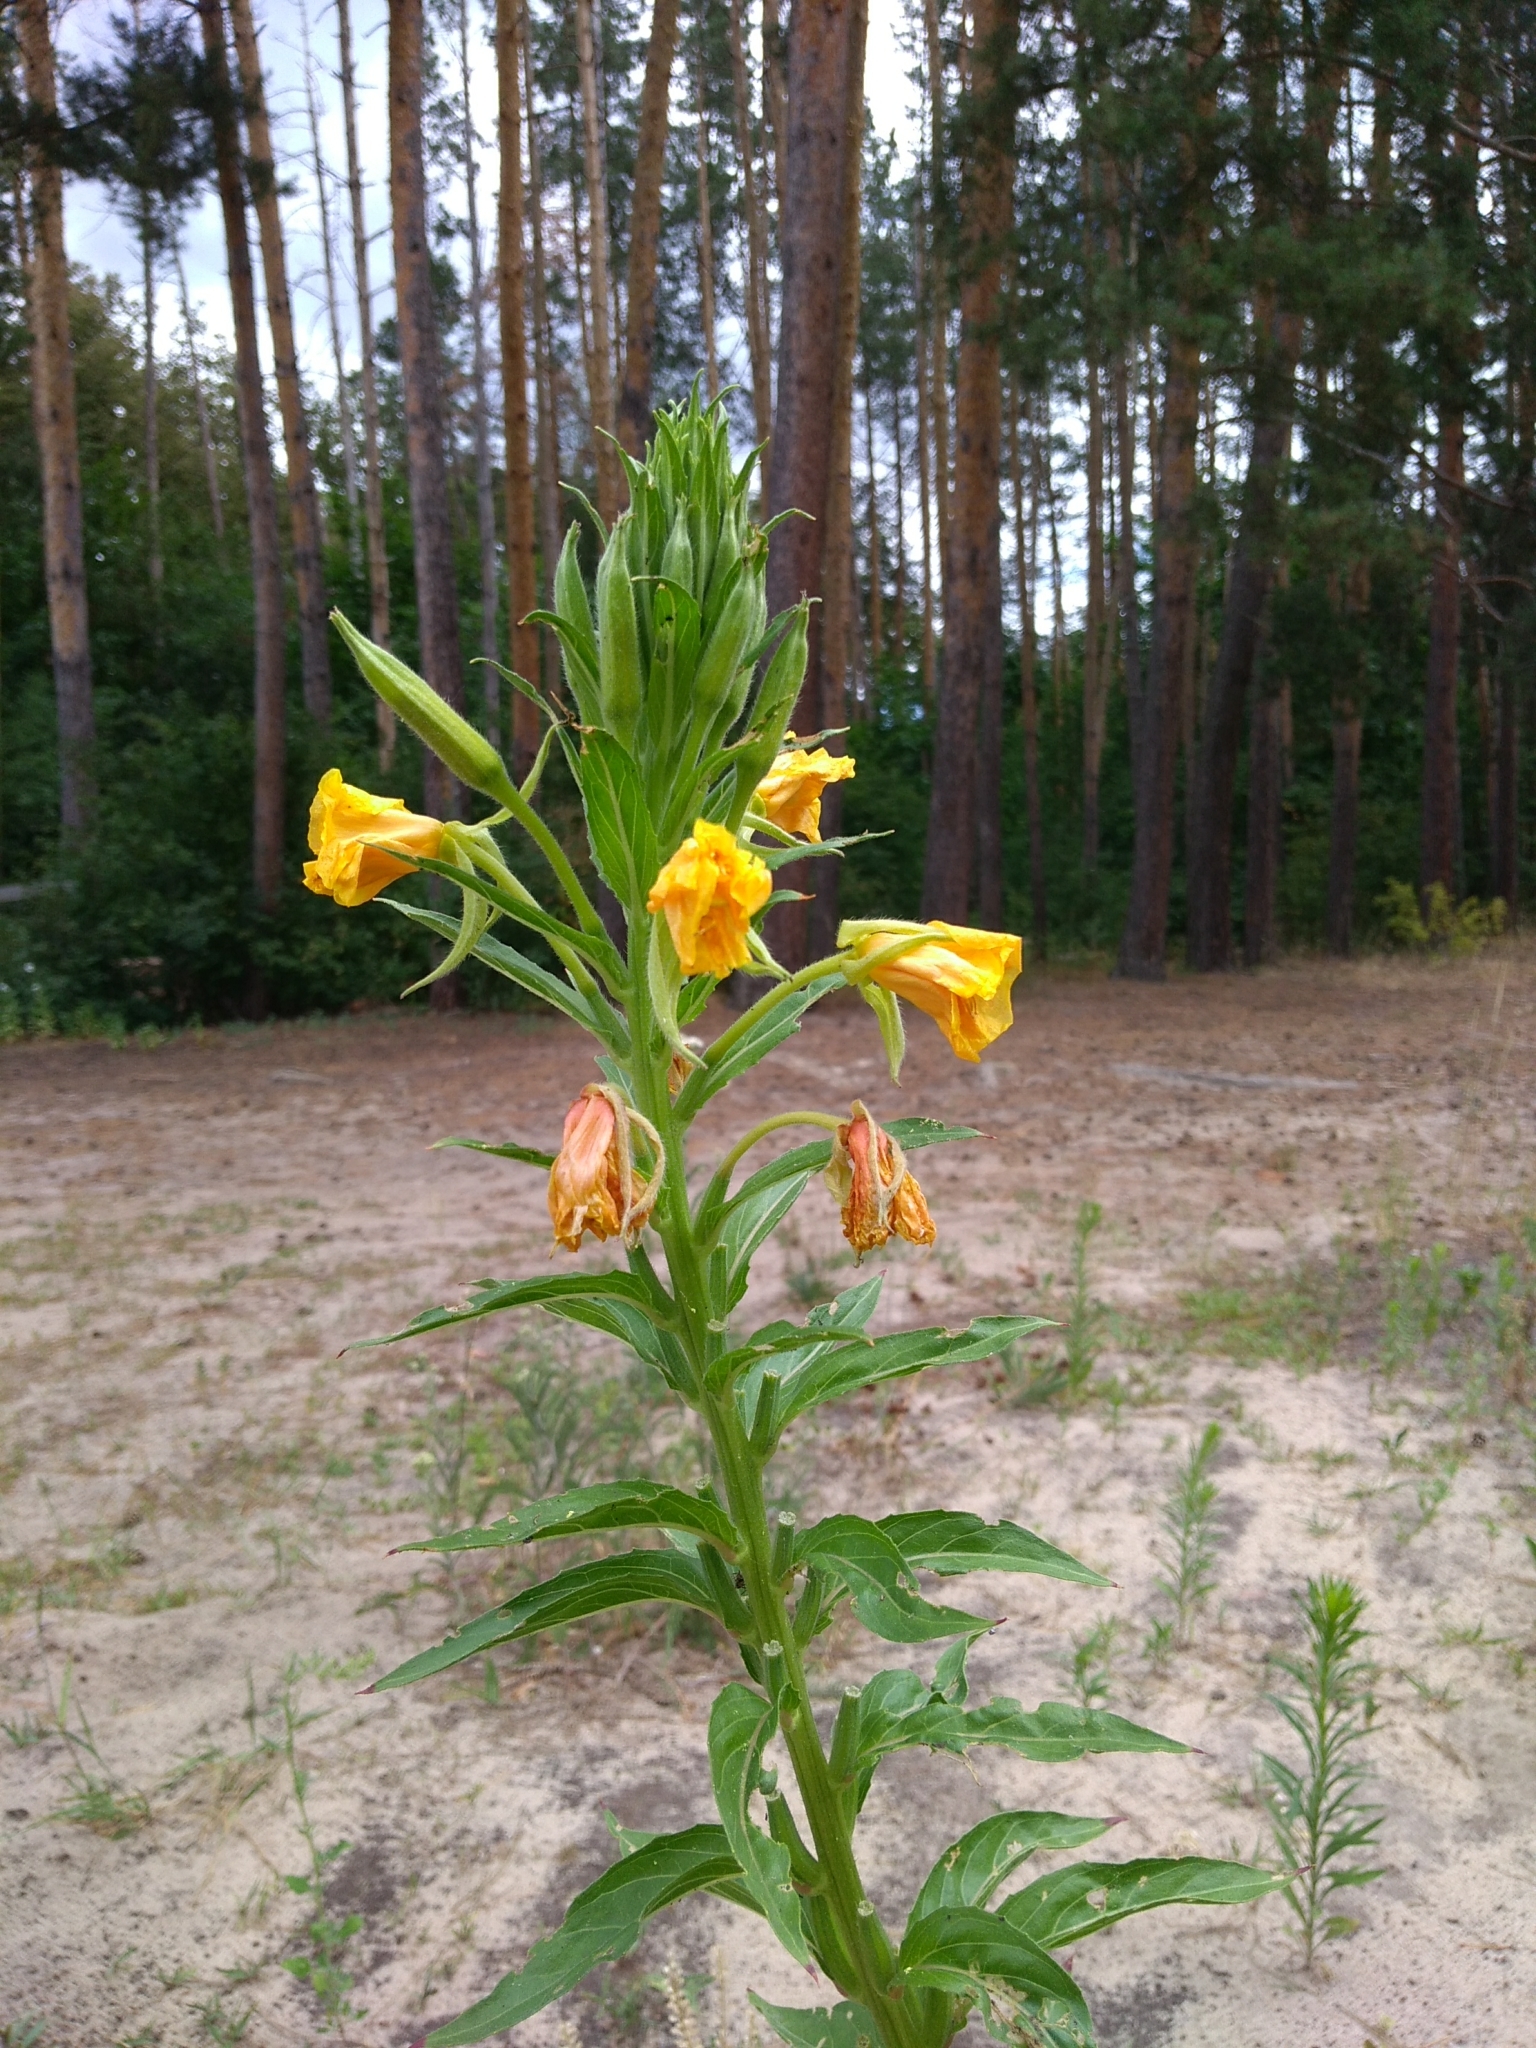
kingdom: Plantae
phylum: Tracheophyta
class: Magnoliopsida
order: Myrtales
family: Onagraceae
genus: Oenothera
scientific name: Oenothera biennis
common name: Common evening-primrose
